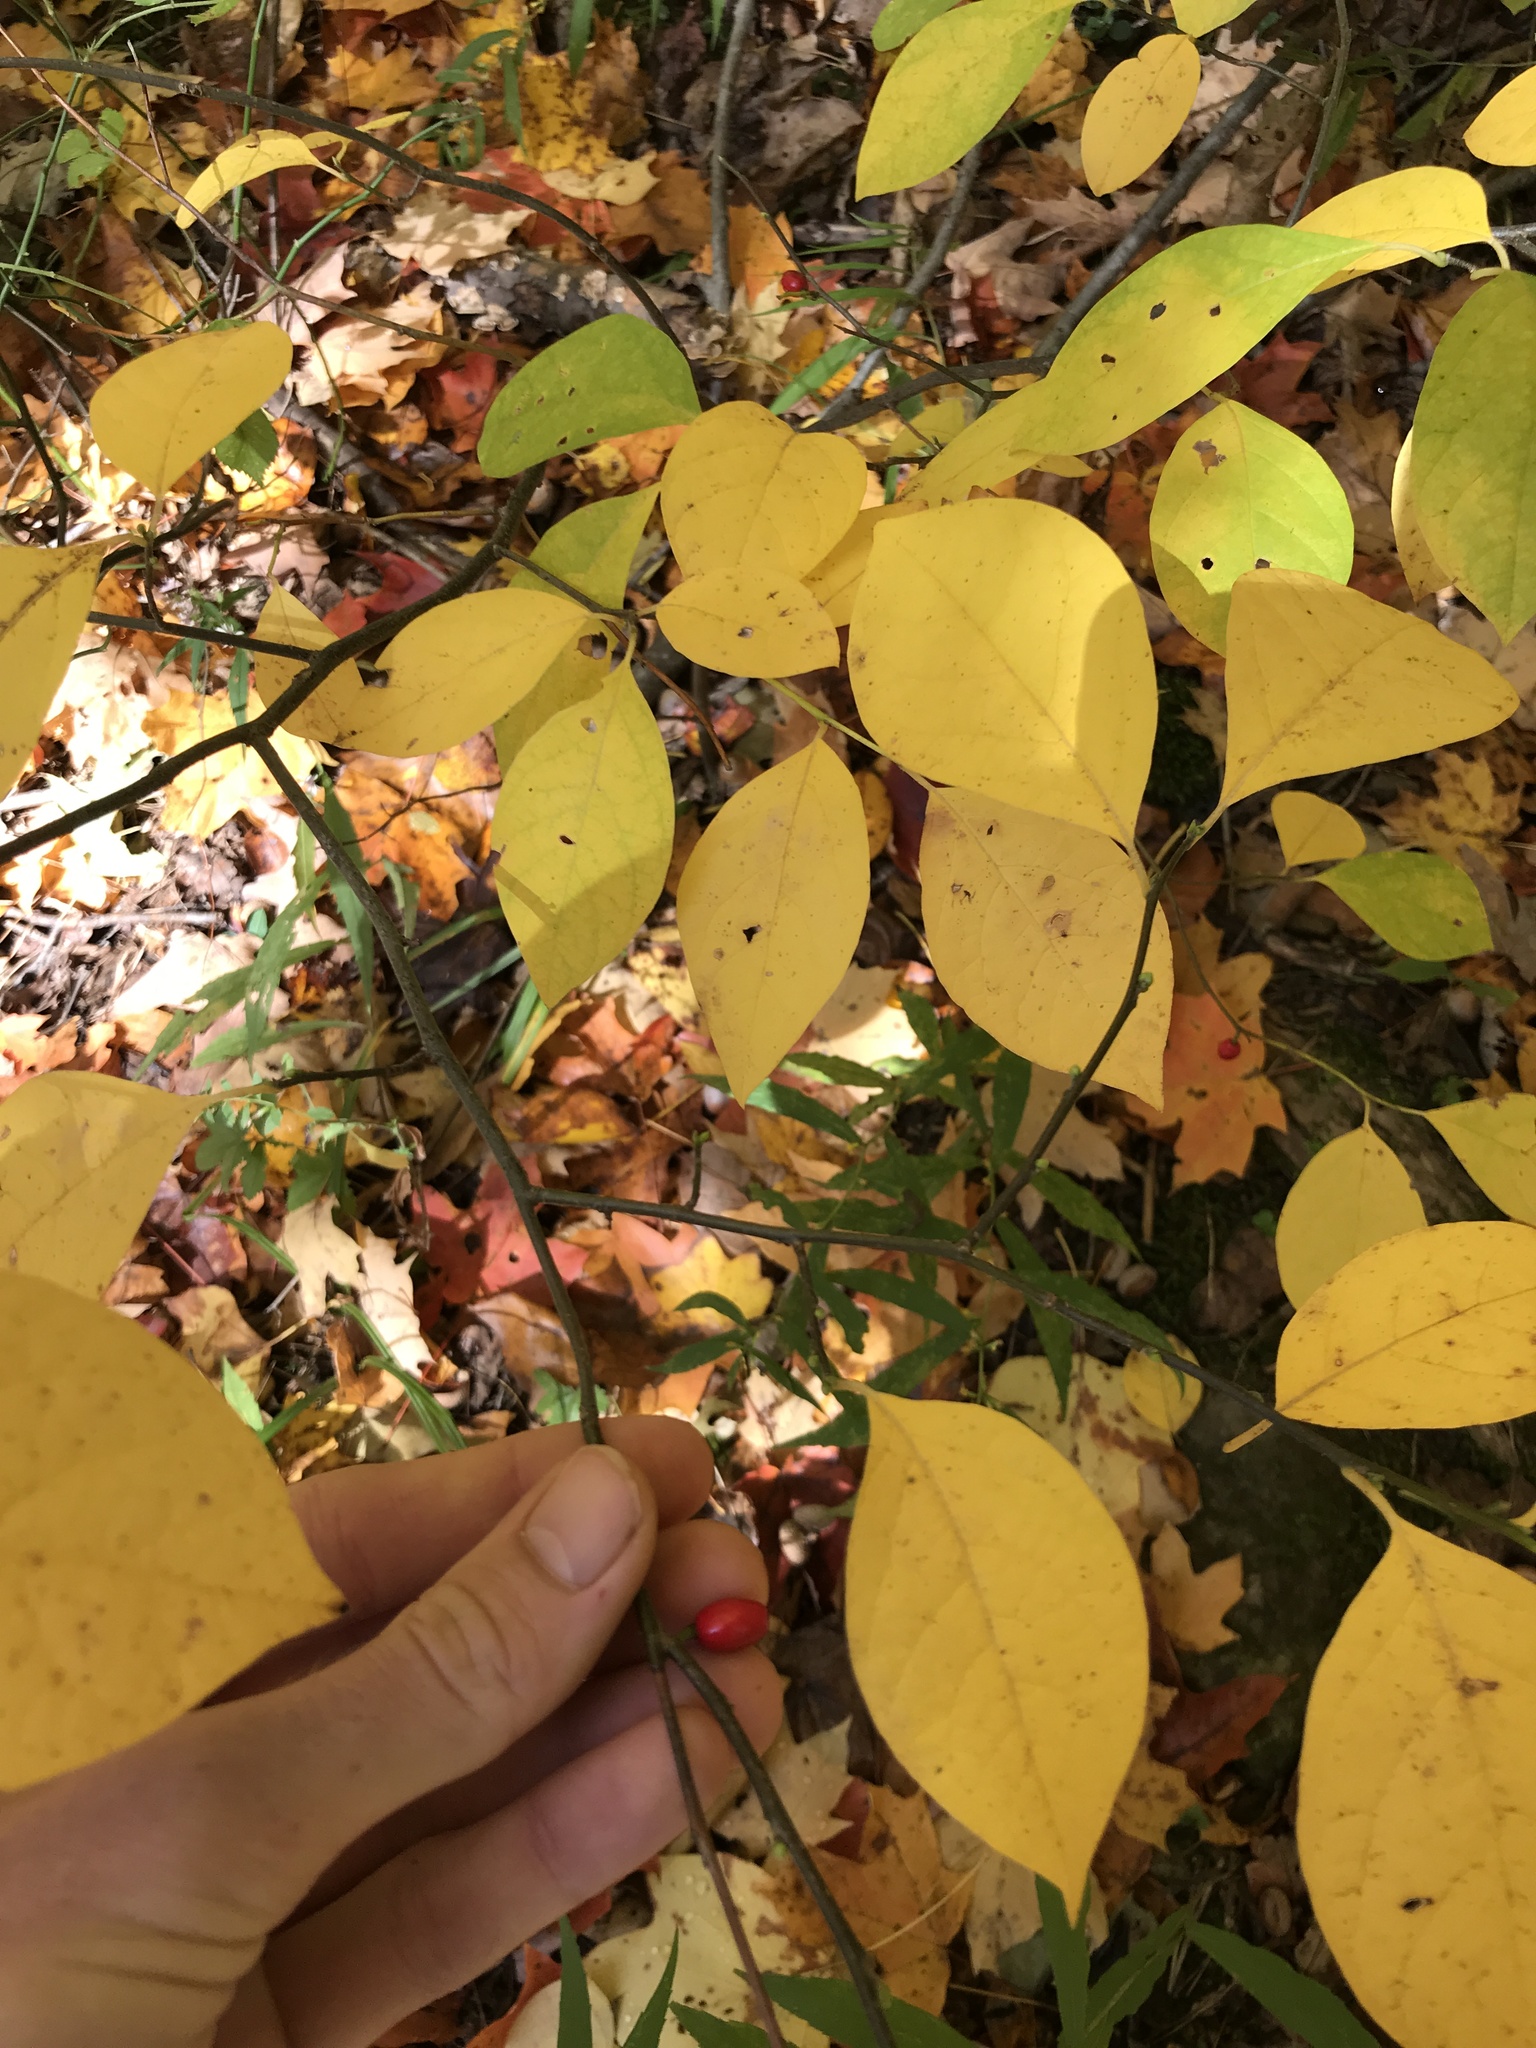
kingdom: Plantae
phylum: Tracheophyta
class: Magnoliopsida
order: Laurales
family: Lauraceae
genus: Lindera
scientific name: Lindera benzoin
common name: Spicebush
